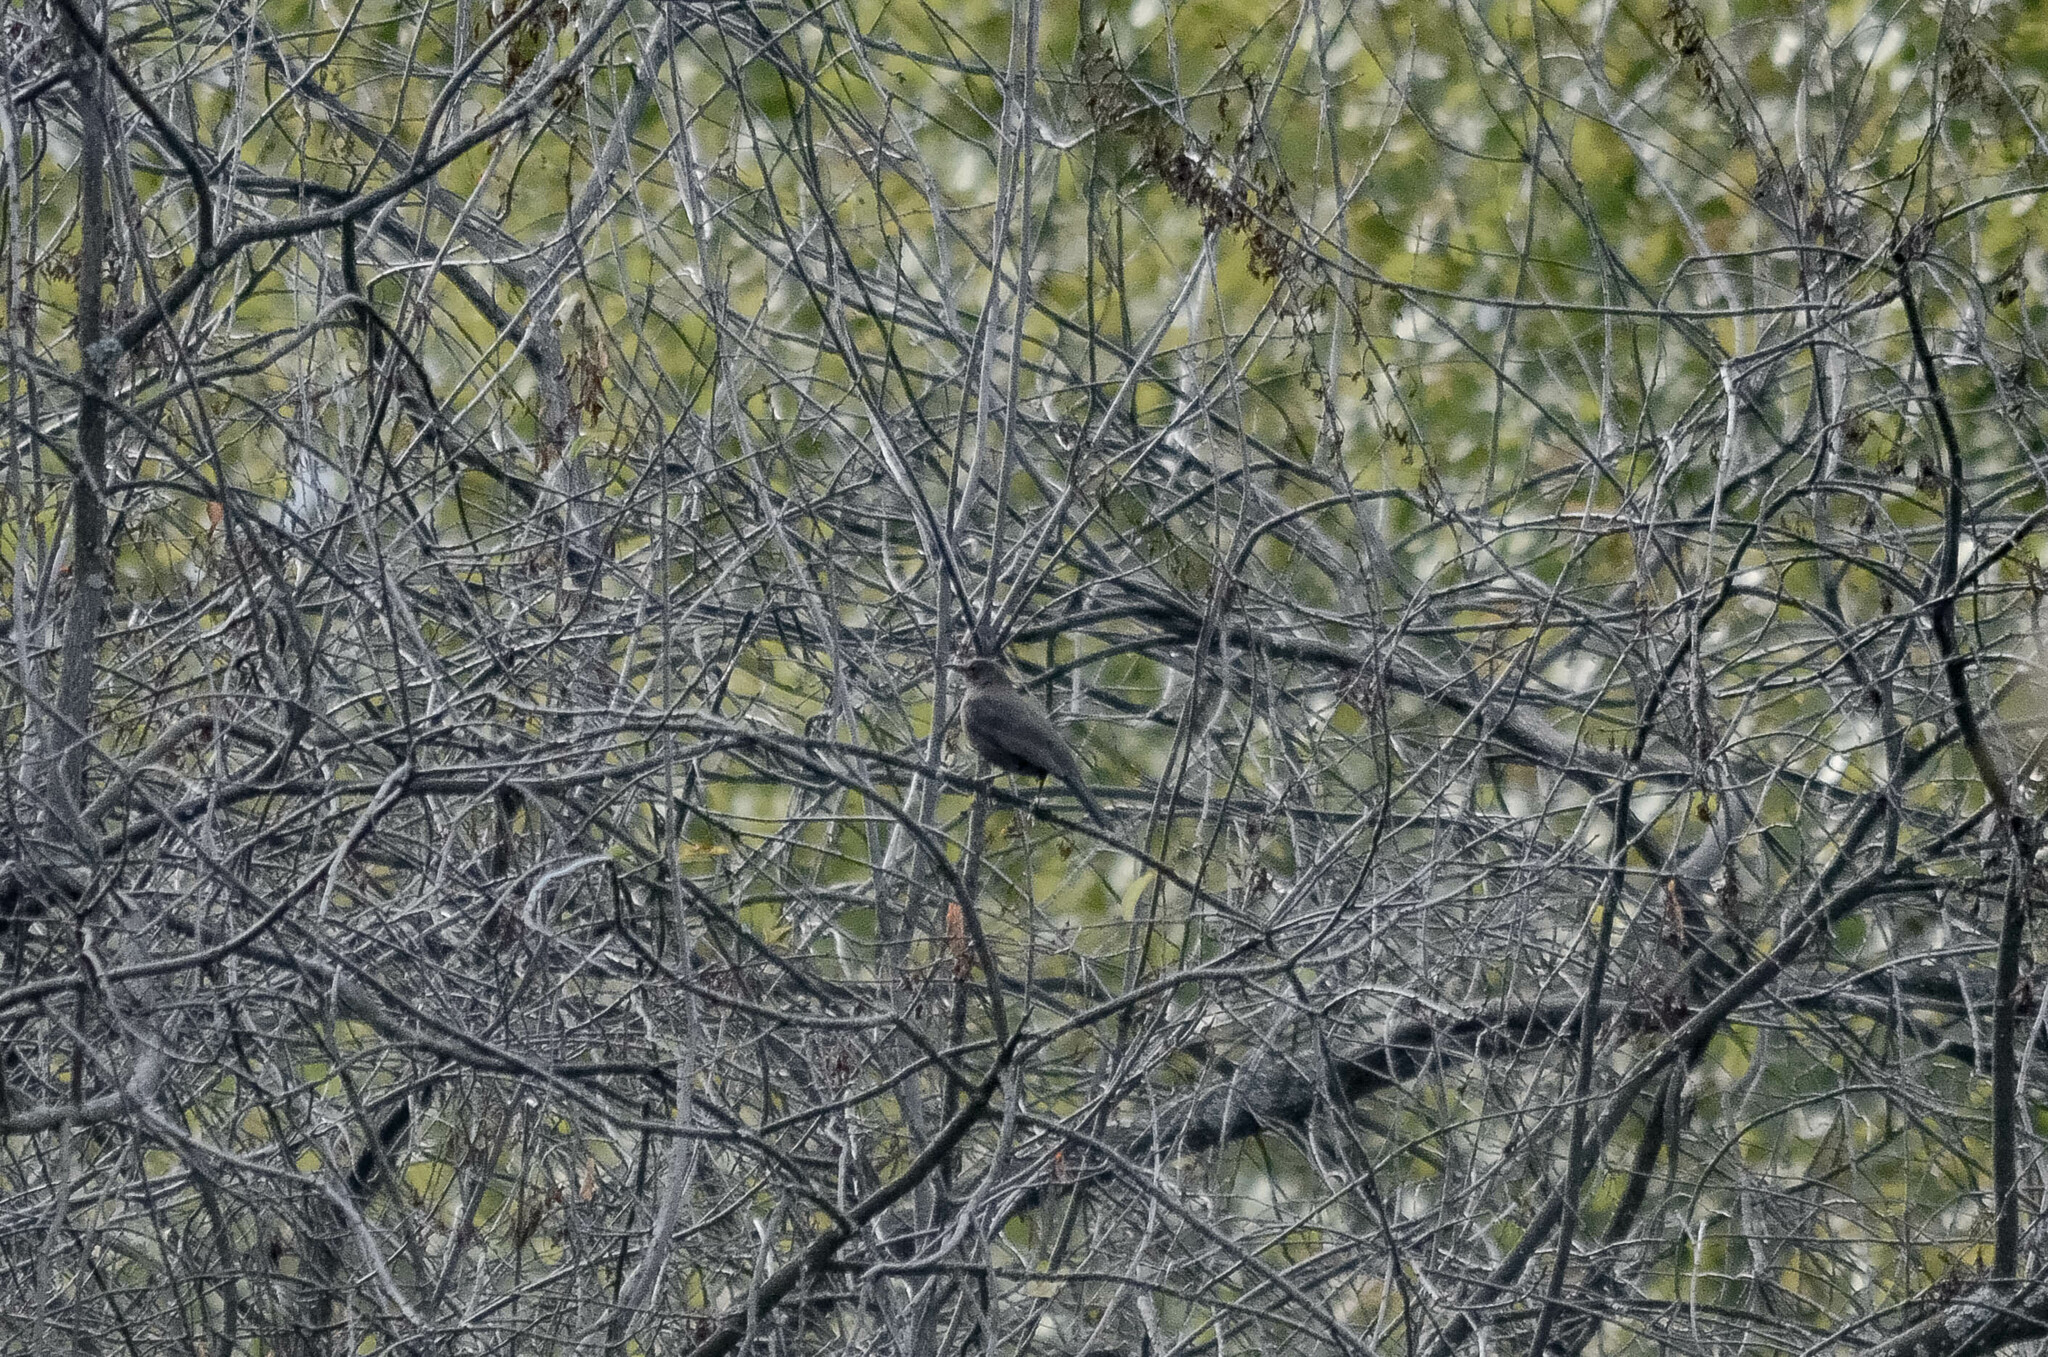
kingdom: Animalia
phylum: Chordata
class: Aves
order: Passeriformes
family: Turdidae
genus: Turdus
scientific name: Turdus merula
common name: Common blackbird
